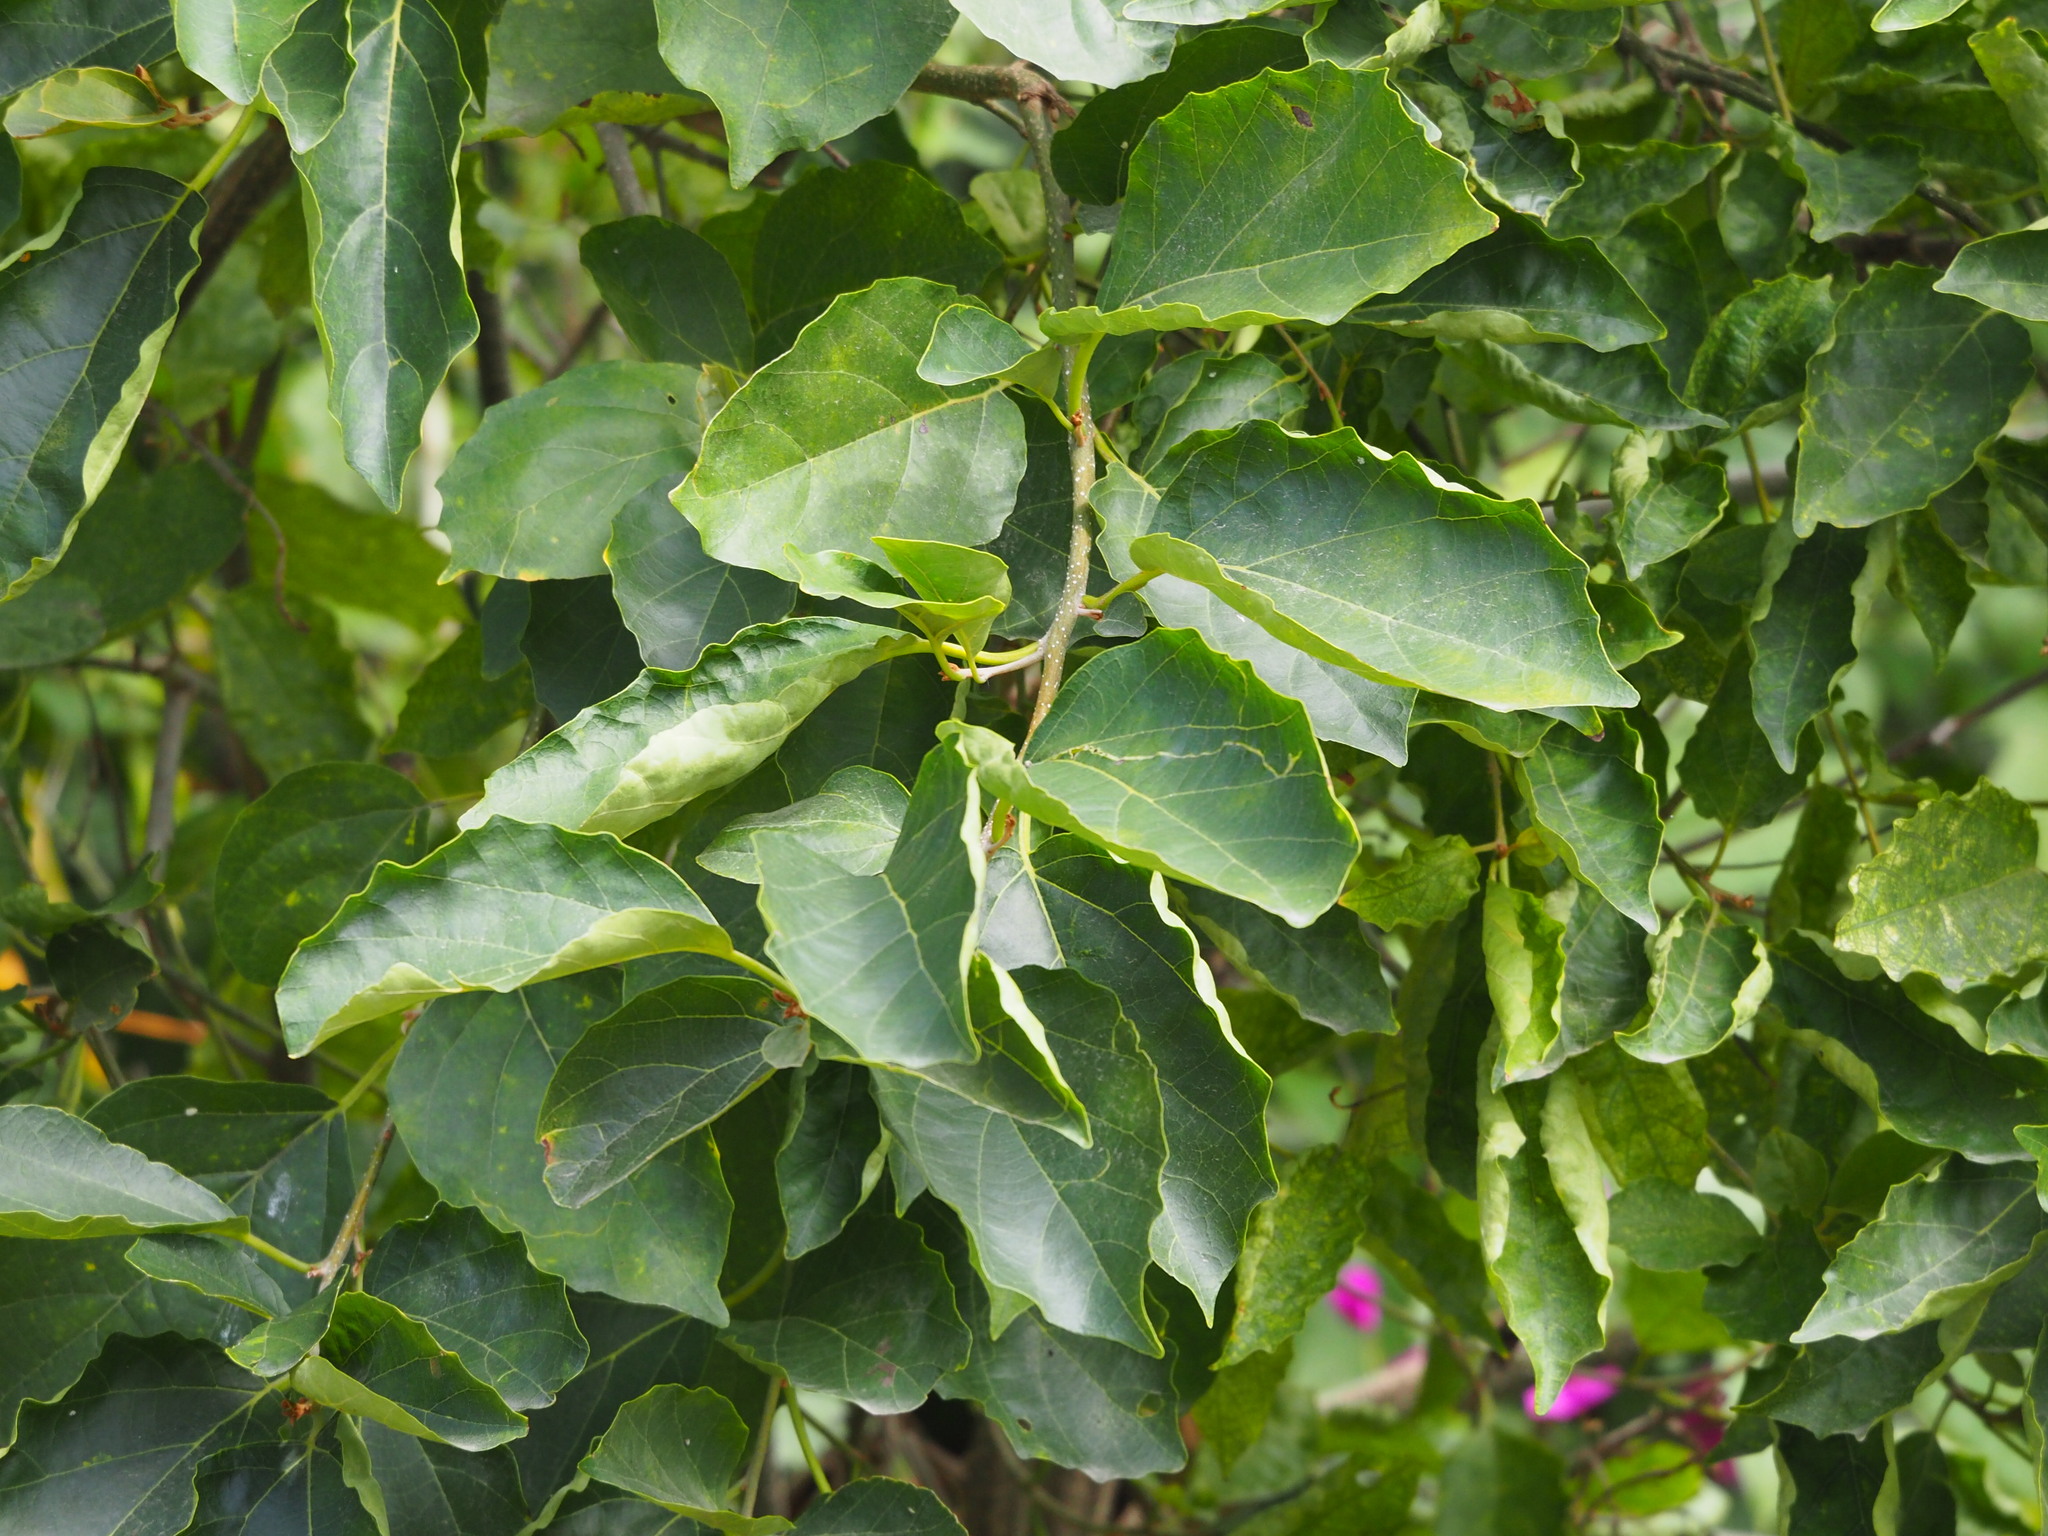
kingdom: Plantae
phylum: Tracheophyta
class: Magnoliopsida
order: Boraginales
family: Cordiaceae
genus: Cordia
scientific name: Cordia dichotoma
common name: Fragrant manjack
